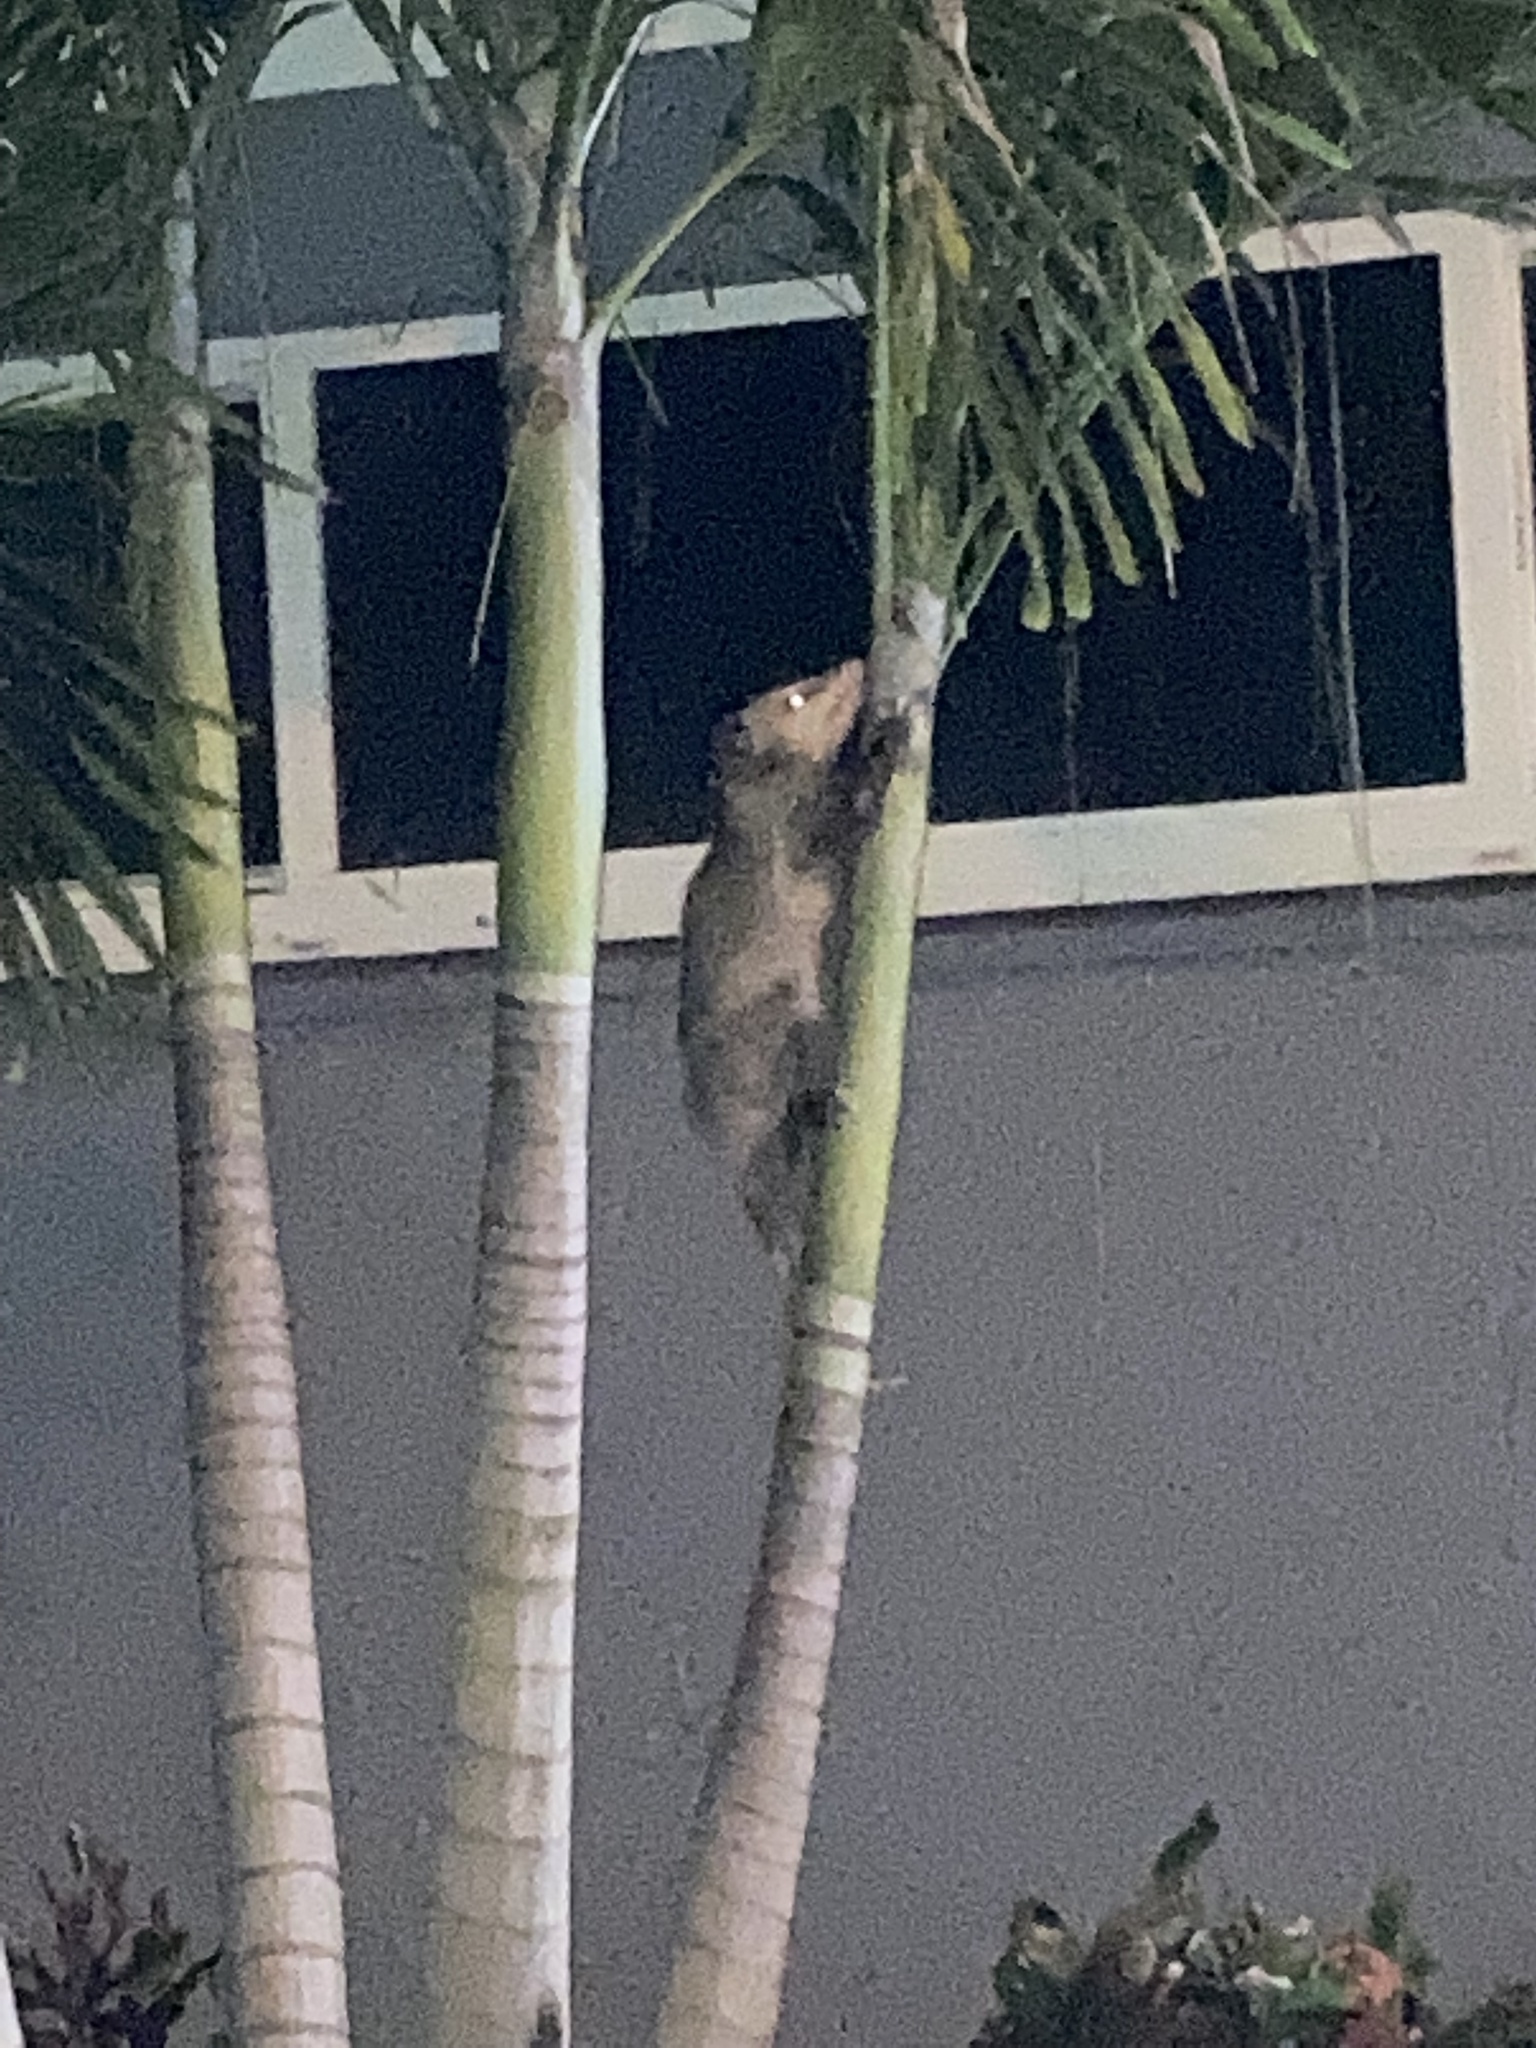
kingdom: Animalia
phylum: Chordata
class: Mammalia
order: Didelphimorphia
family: Didelphidae
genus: Didelphis
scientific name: Didelphis virginiana
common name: Virginia opossum
